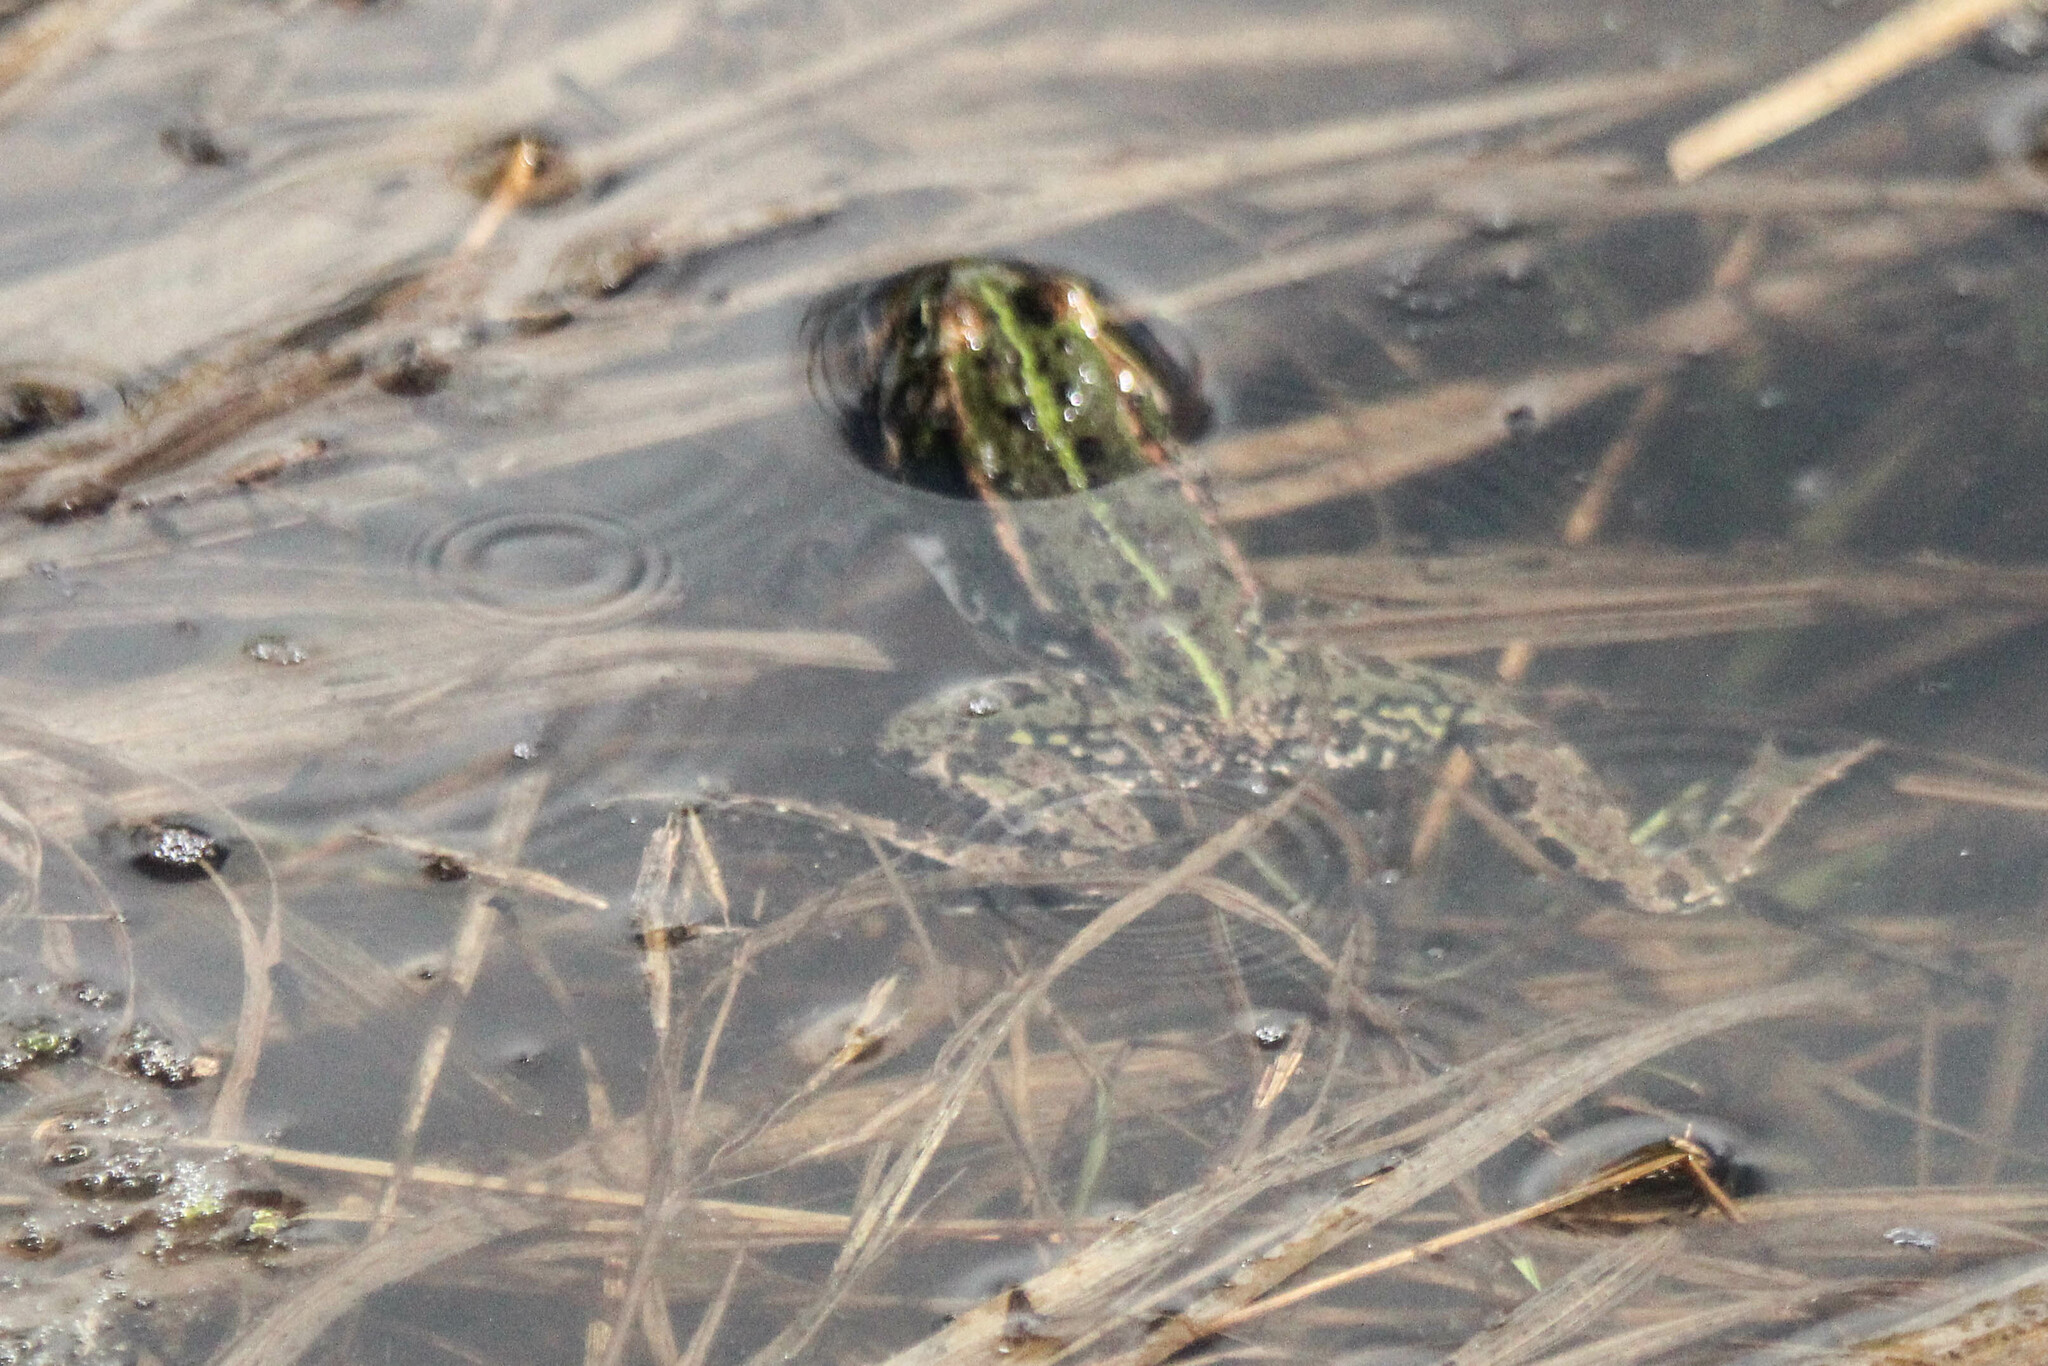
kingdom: Animalia
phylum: Chordata
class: Amphibia
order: Anura
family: Ranidae
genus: Pelophylax
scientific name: Pelophylax lessonae
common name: Pool frog
